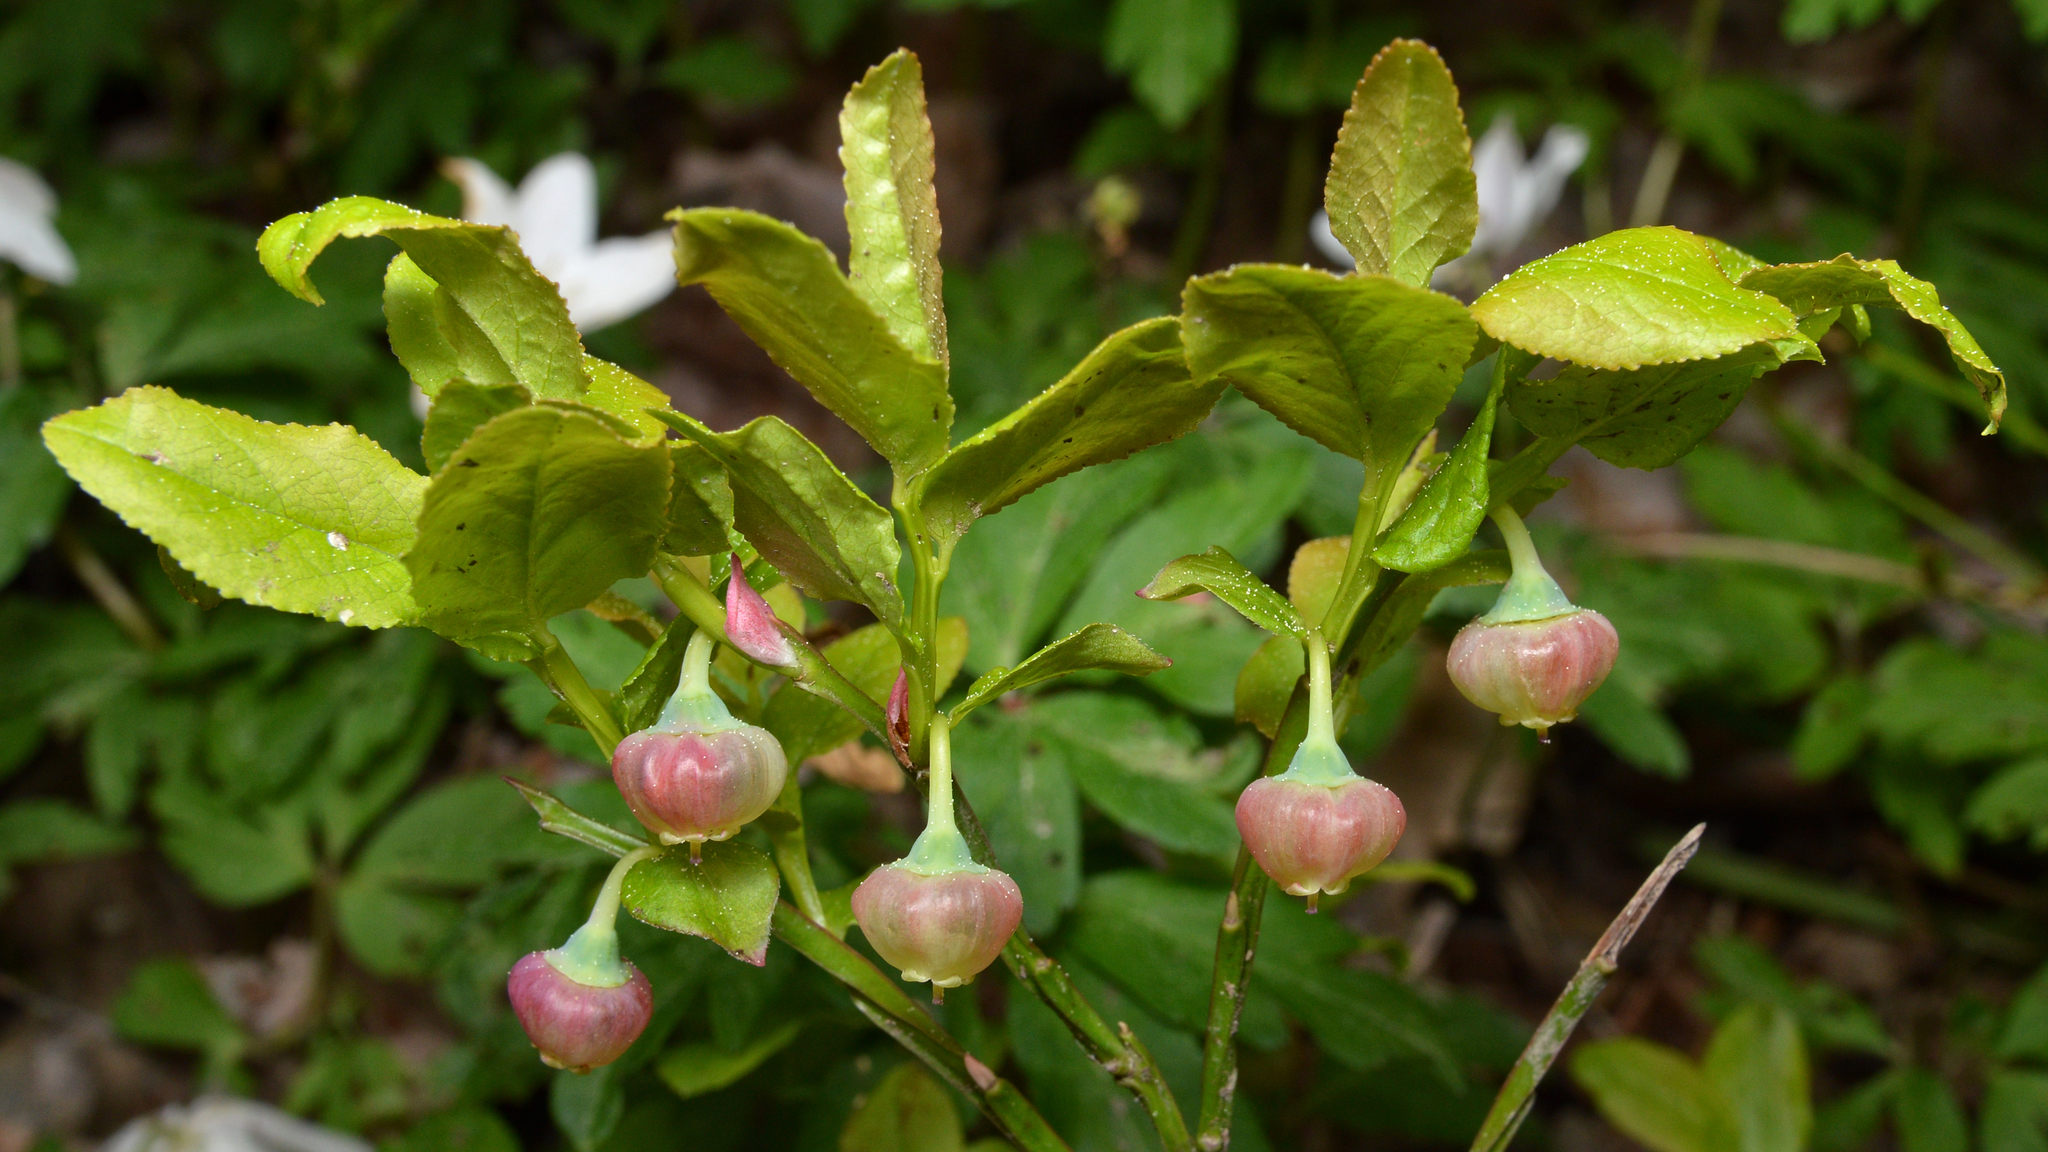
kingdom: Plantae
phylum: Tracheophyta
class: Magnoliopsida
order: Ericales
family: Ericaceae
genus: Vaccinium
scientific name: Vaccinium myrtillus
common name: Bilberry
